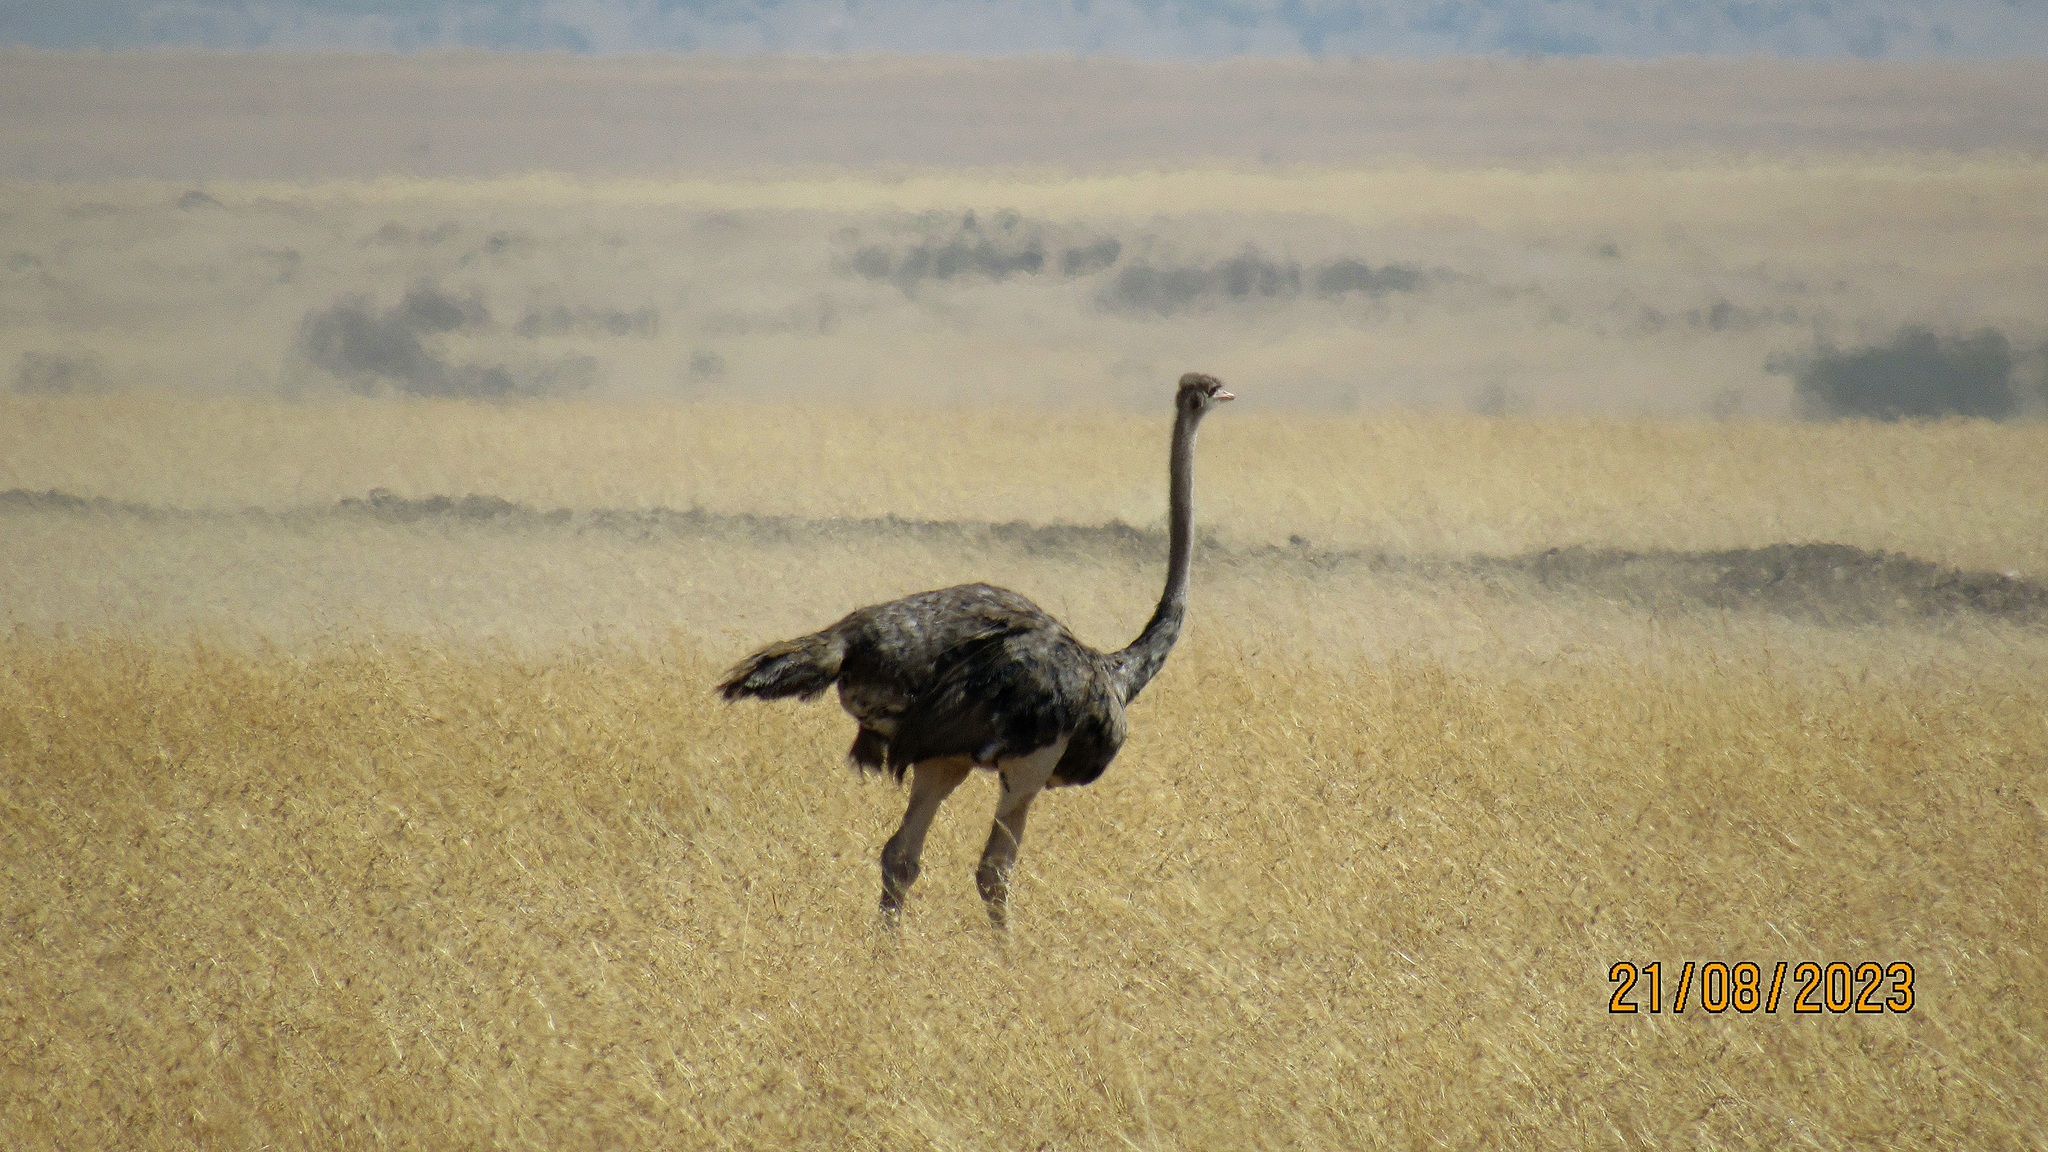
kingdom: Animalia
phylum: Chordata
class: Aves
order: Struthioniformes
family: Struthionidae
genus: Struthio
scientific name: Struthio camelus
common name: Common ostrich
